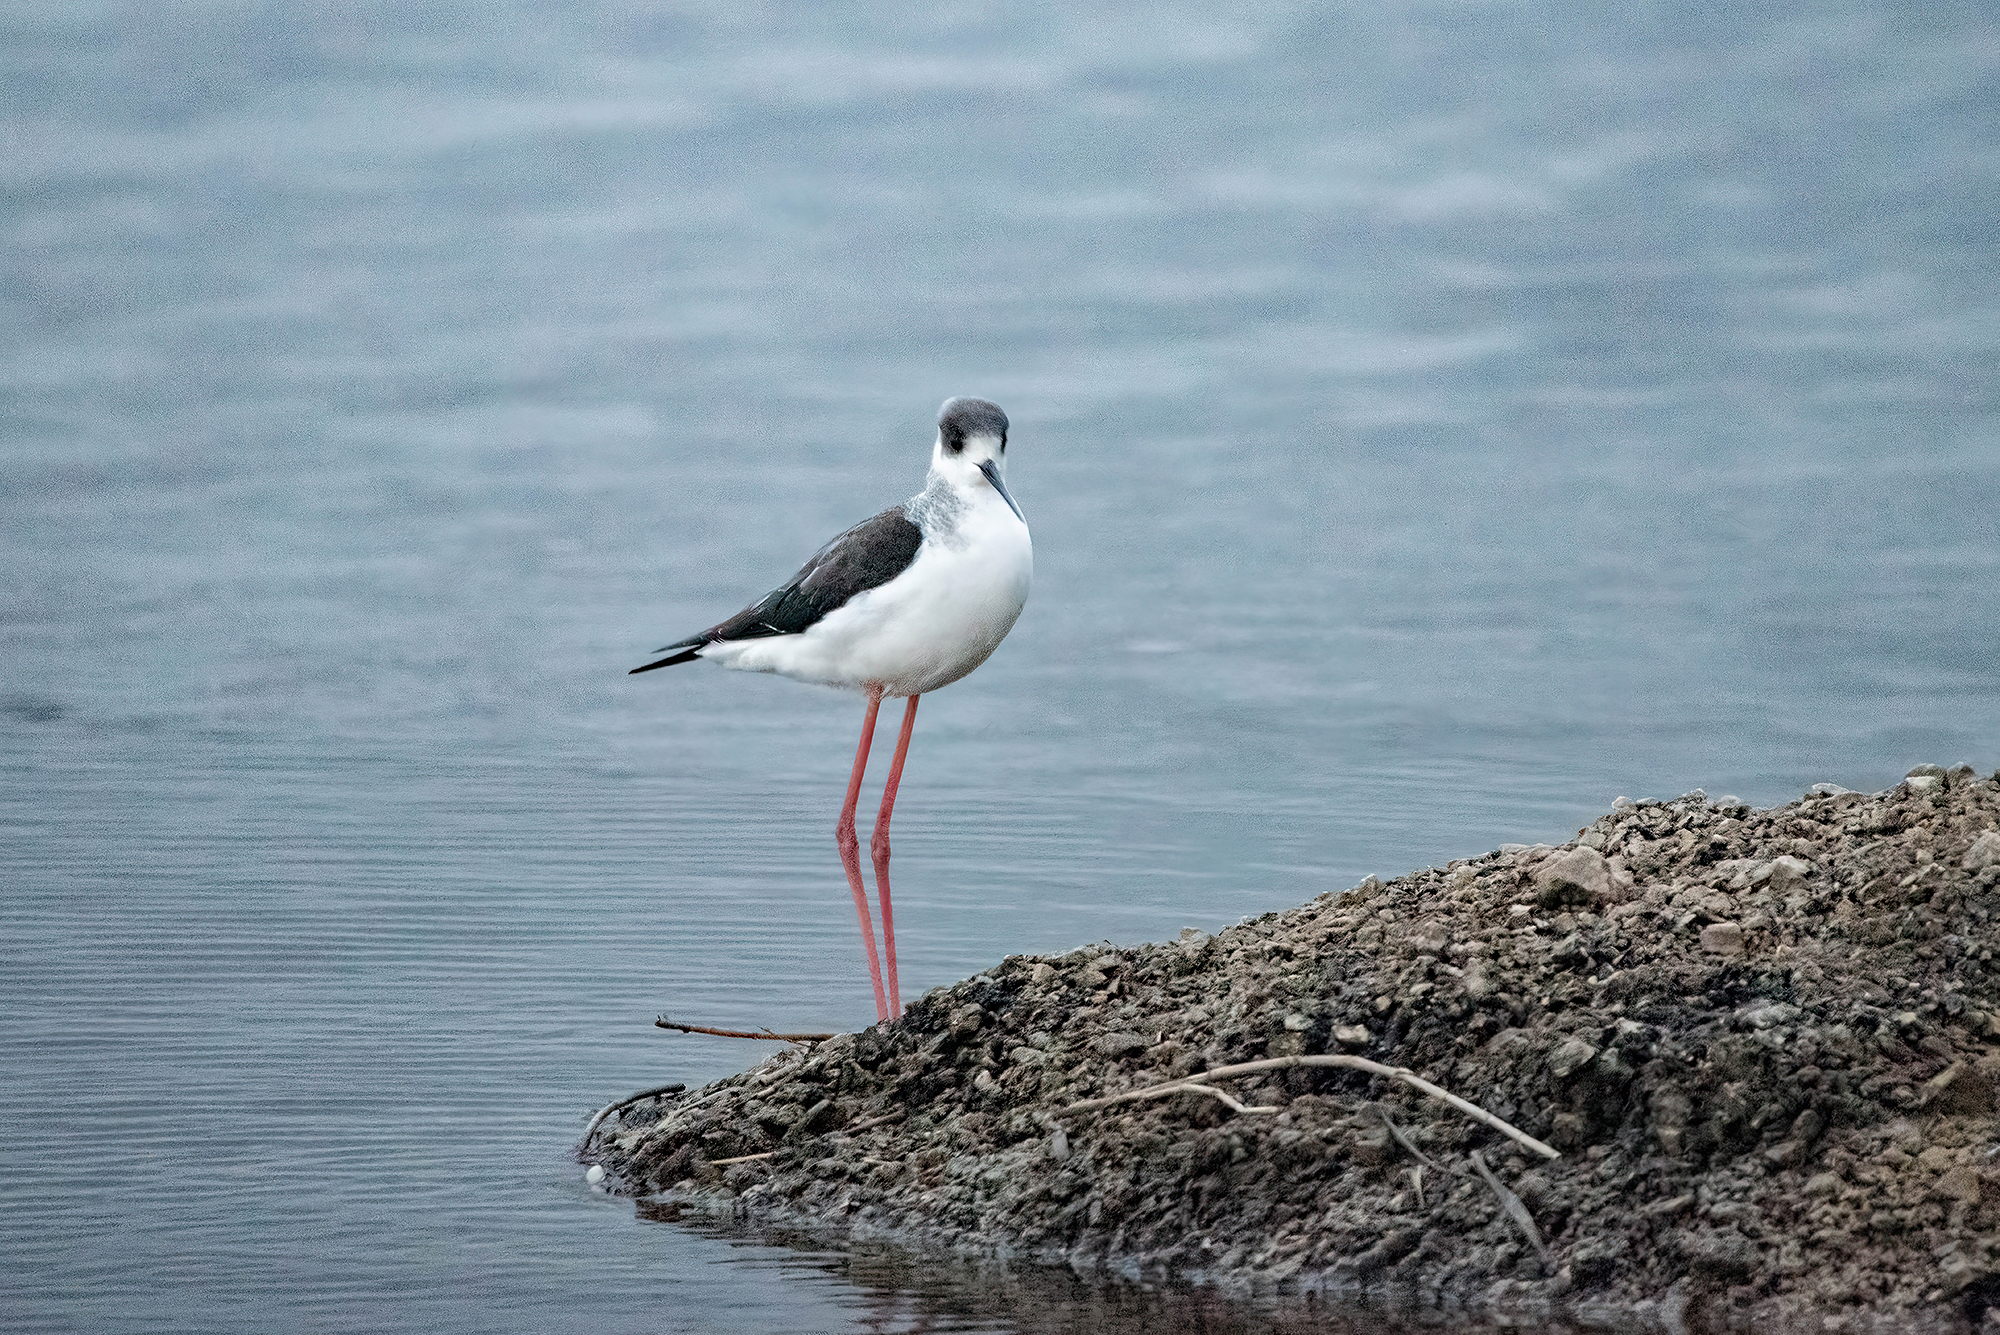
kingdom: Animalia
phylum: Chordata
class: Aves
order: Charadriiformes
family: Recurvirostridae
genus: Himantopus
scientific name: Himantopus himantopus
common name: Black-winged stilt
